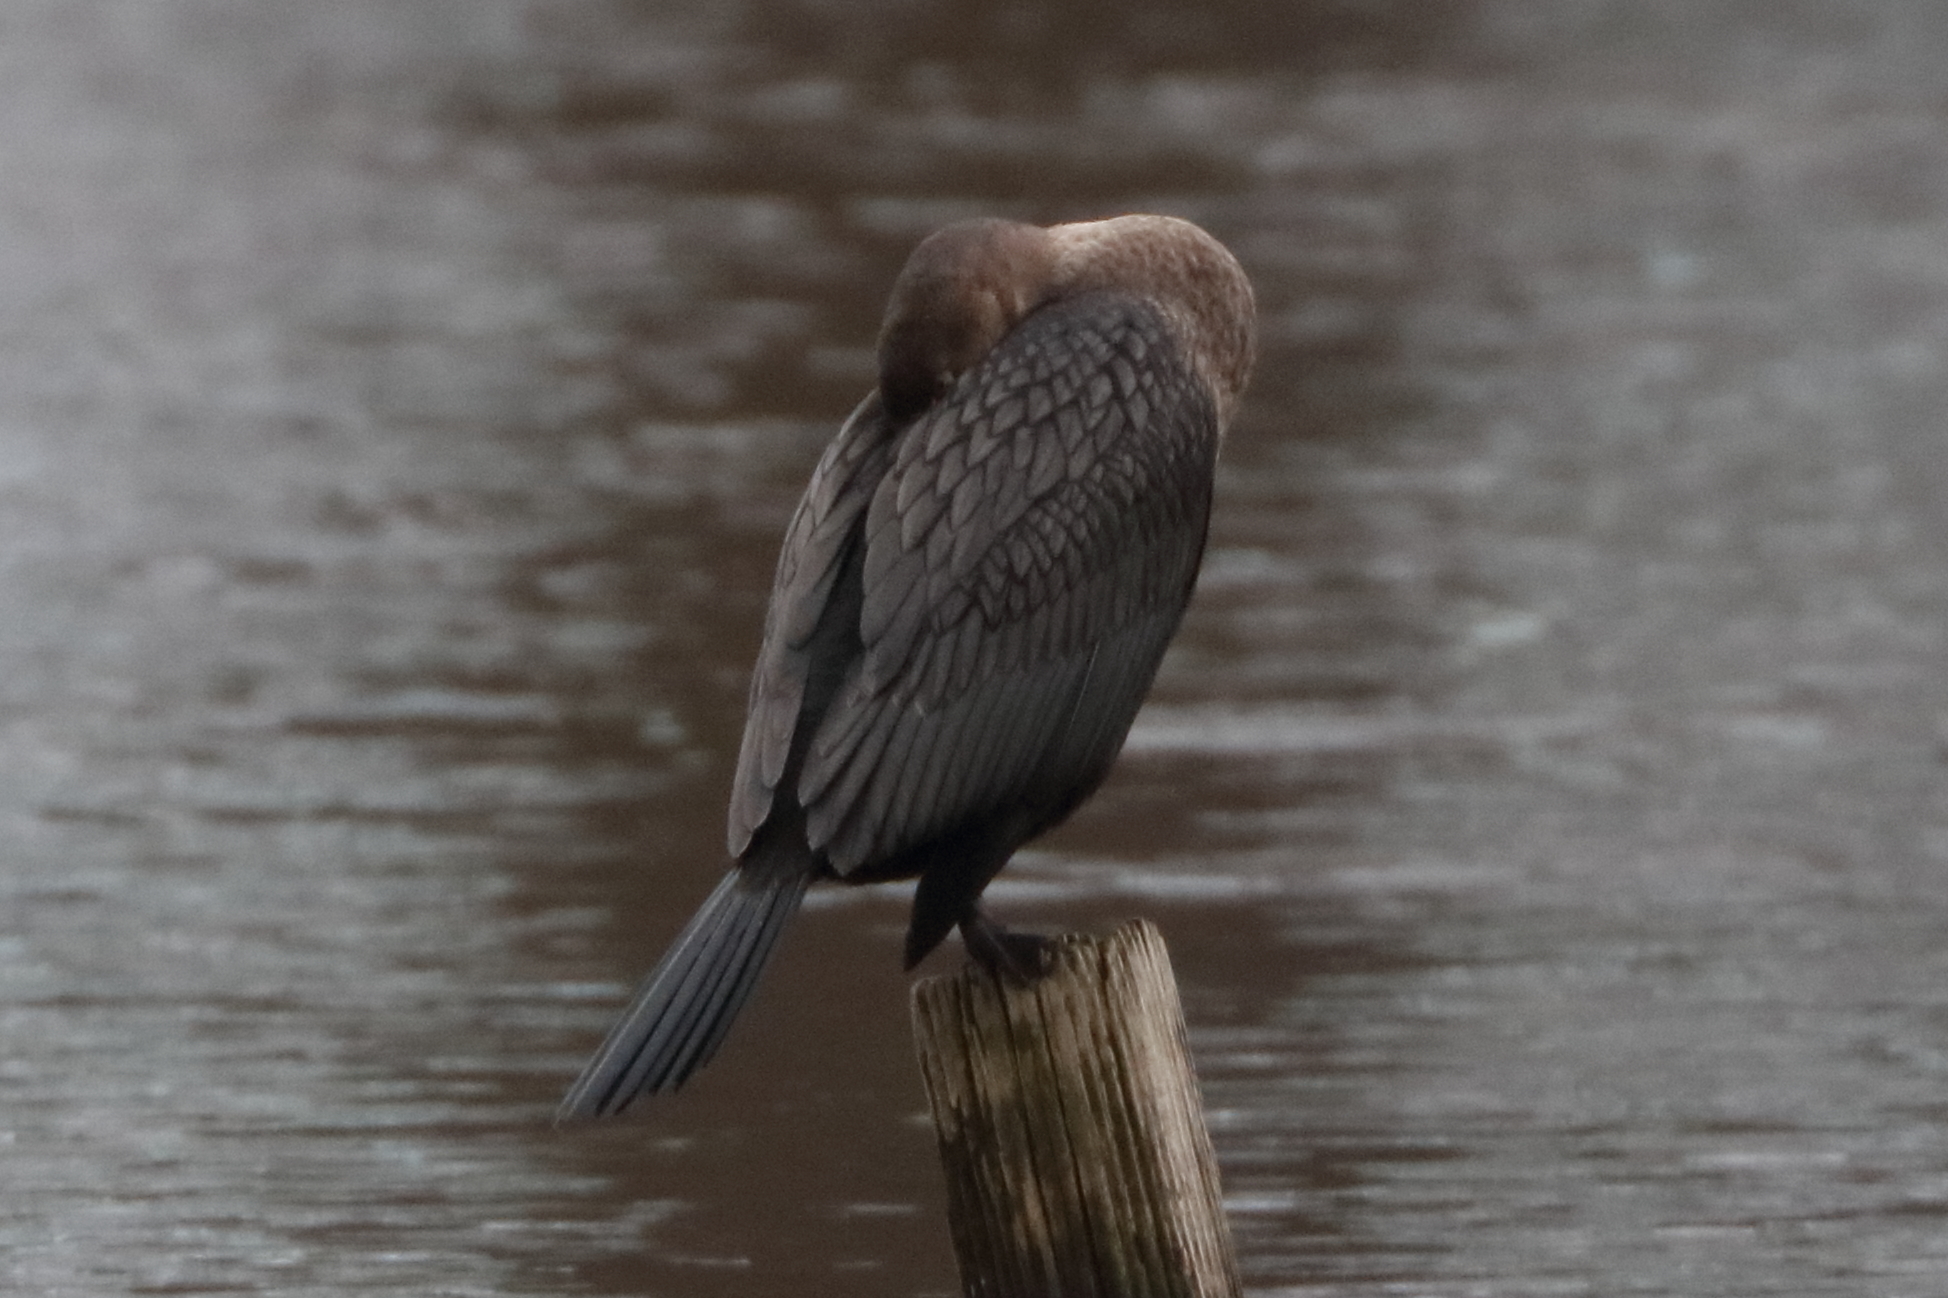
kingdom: Animalia
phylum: Chordata
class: Aves
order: Suliformes
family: Phalacrocoracidae
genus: Phalacrocorax
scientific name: Phalacrocorax auritus
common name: Double-crested cormorant
